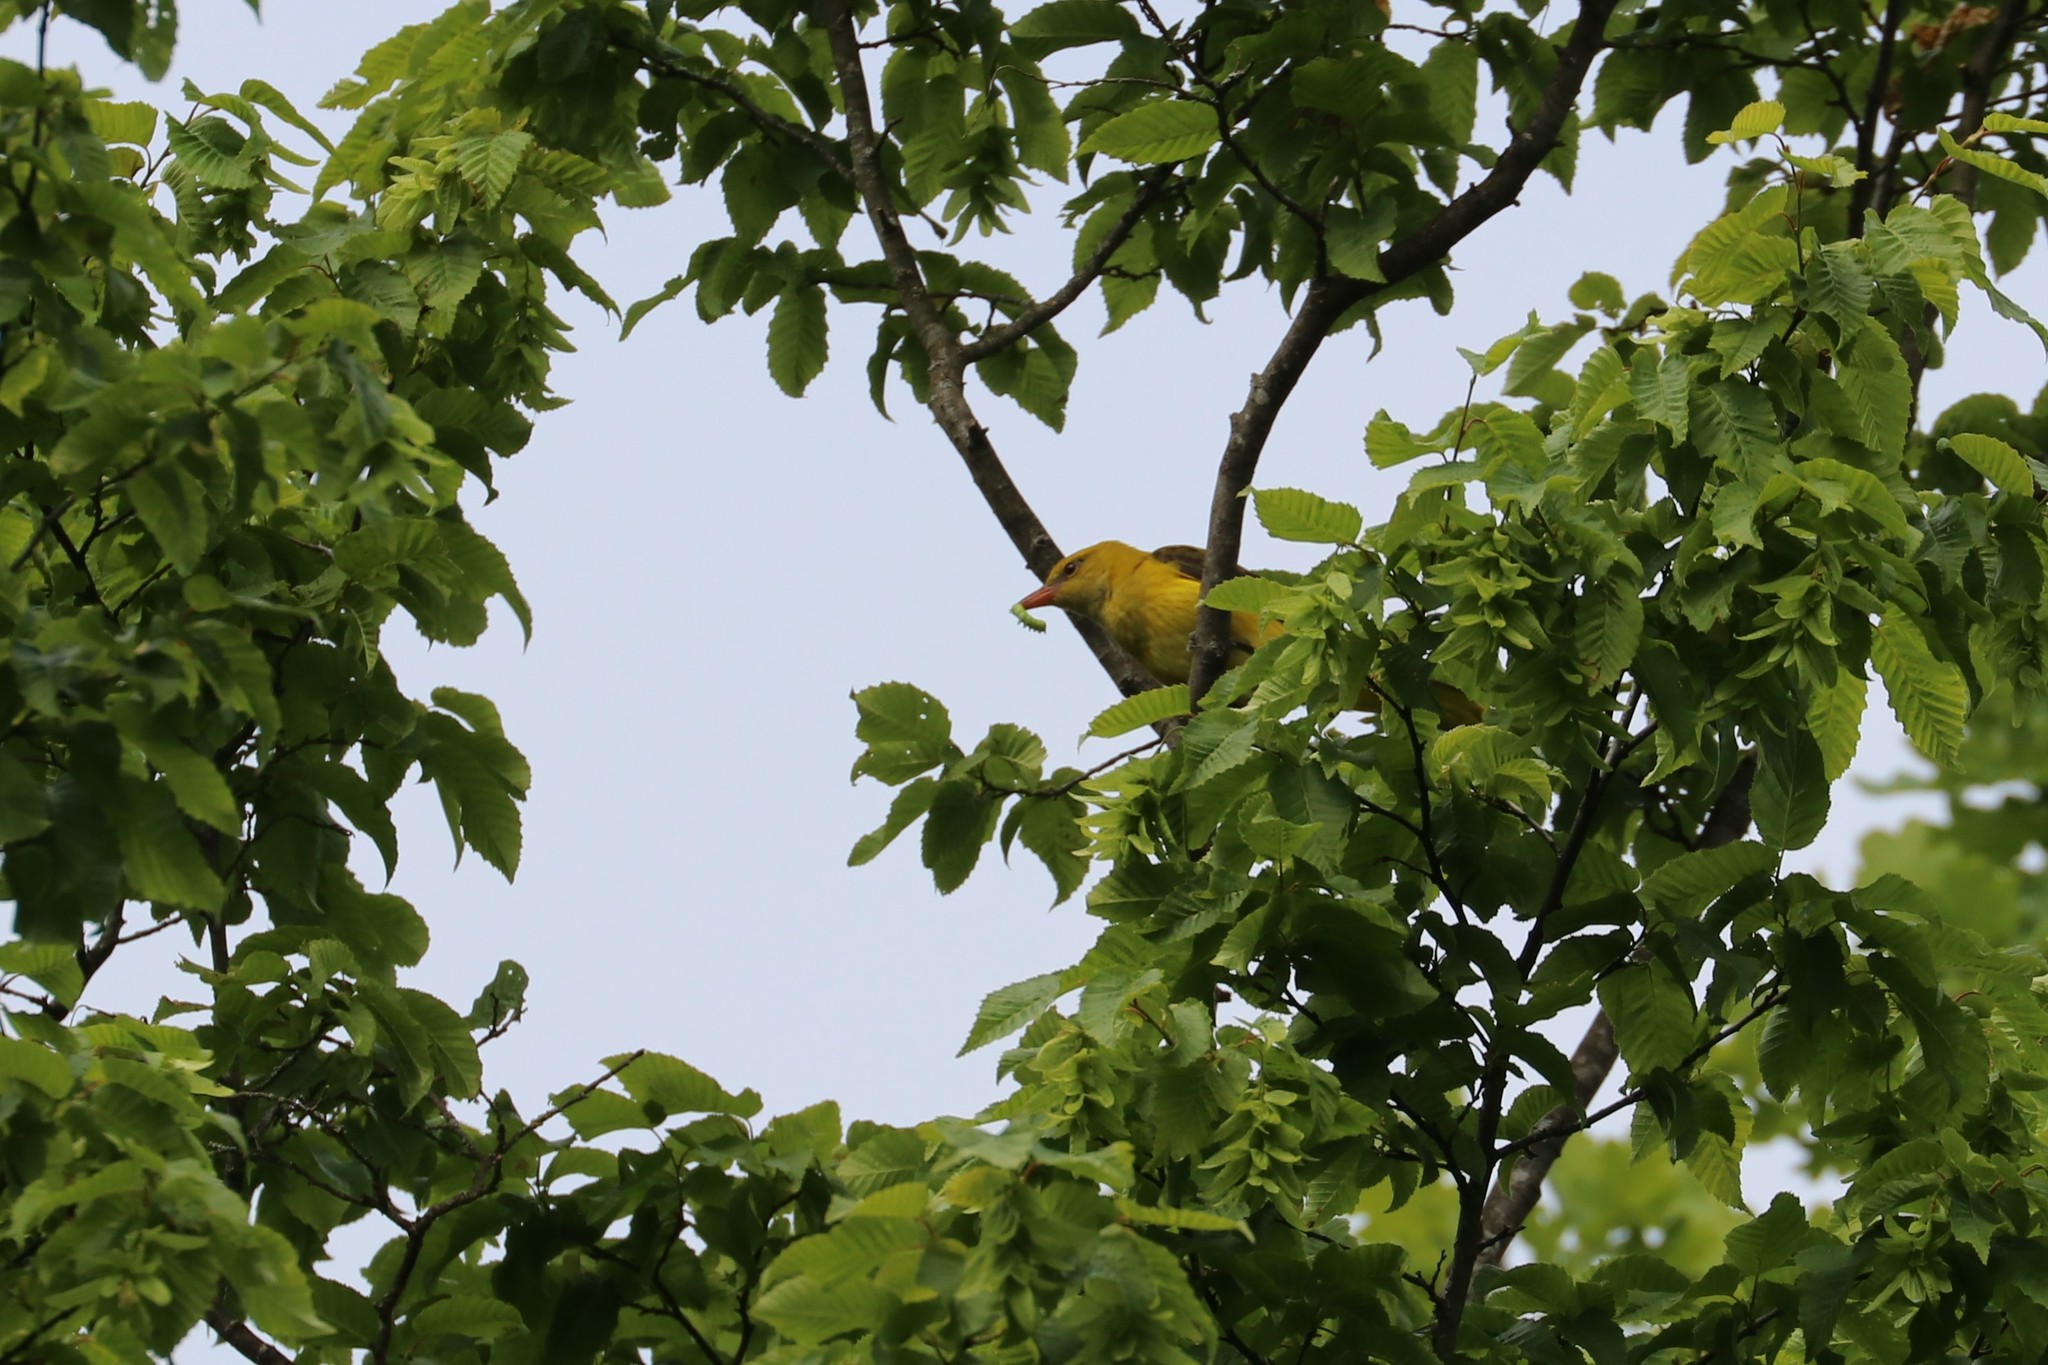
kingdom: Animalia
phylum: Chordata
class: Aves
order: Passeriformes
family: Oriolidae
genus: Oriolus
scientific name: Oriolus oriolus
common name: Eurasian golden oriole
